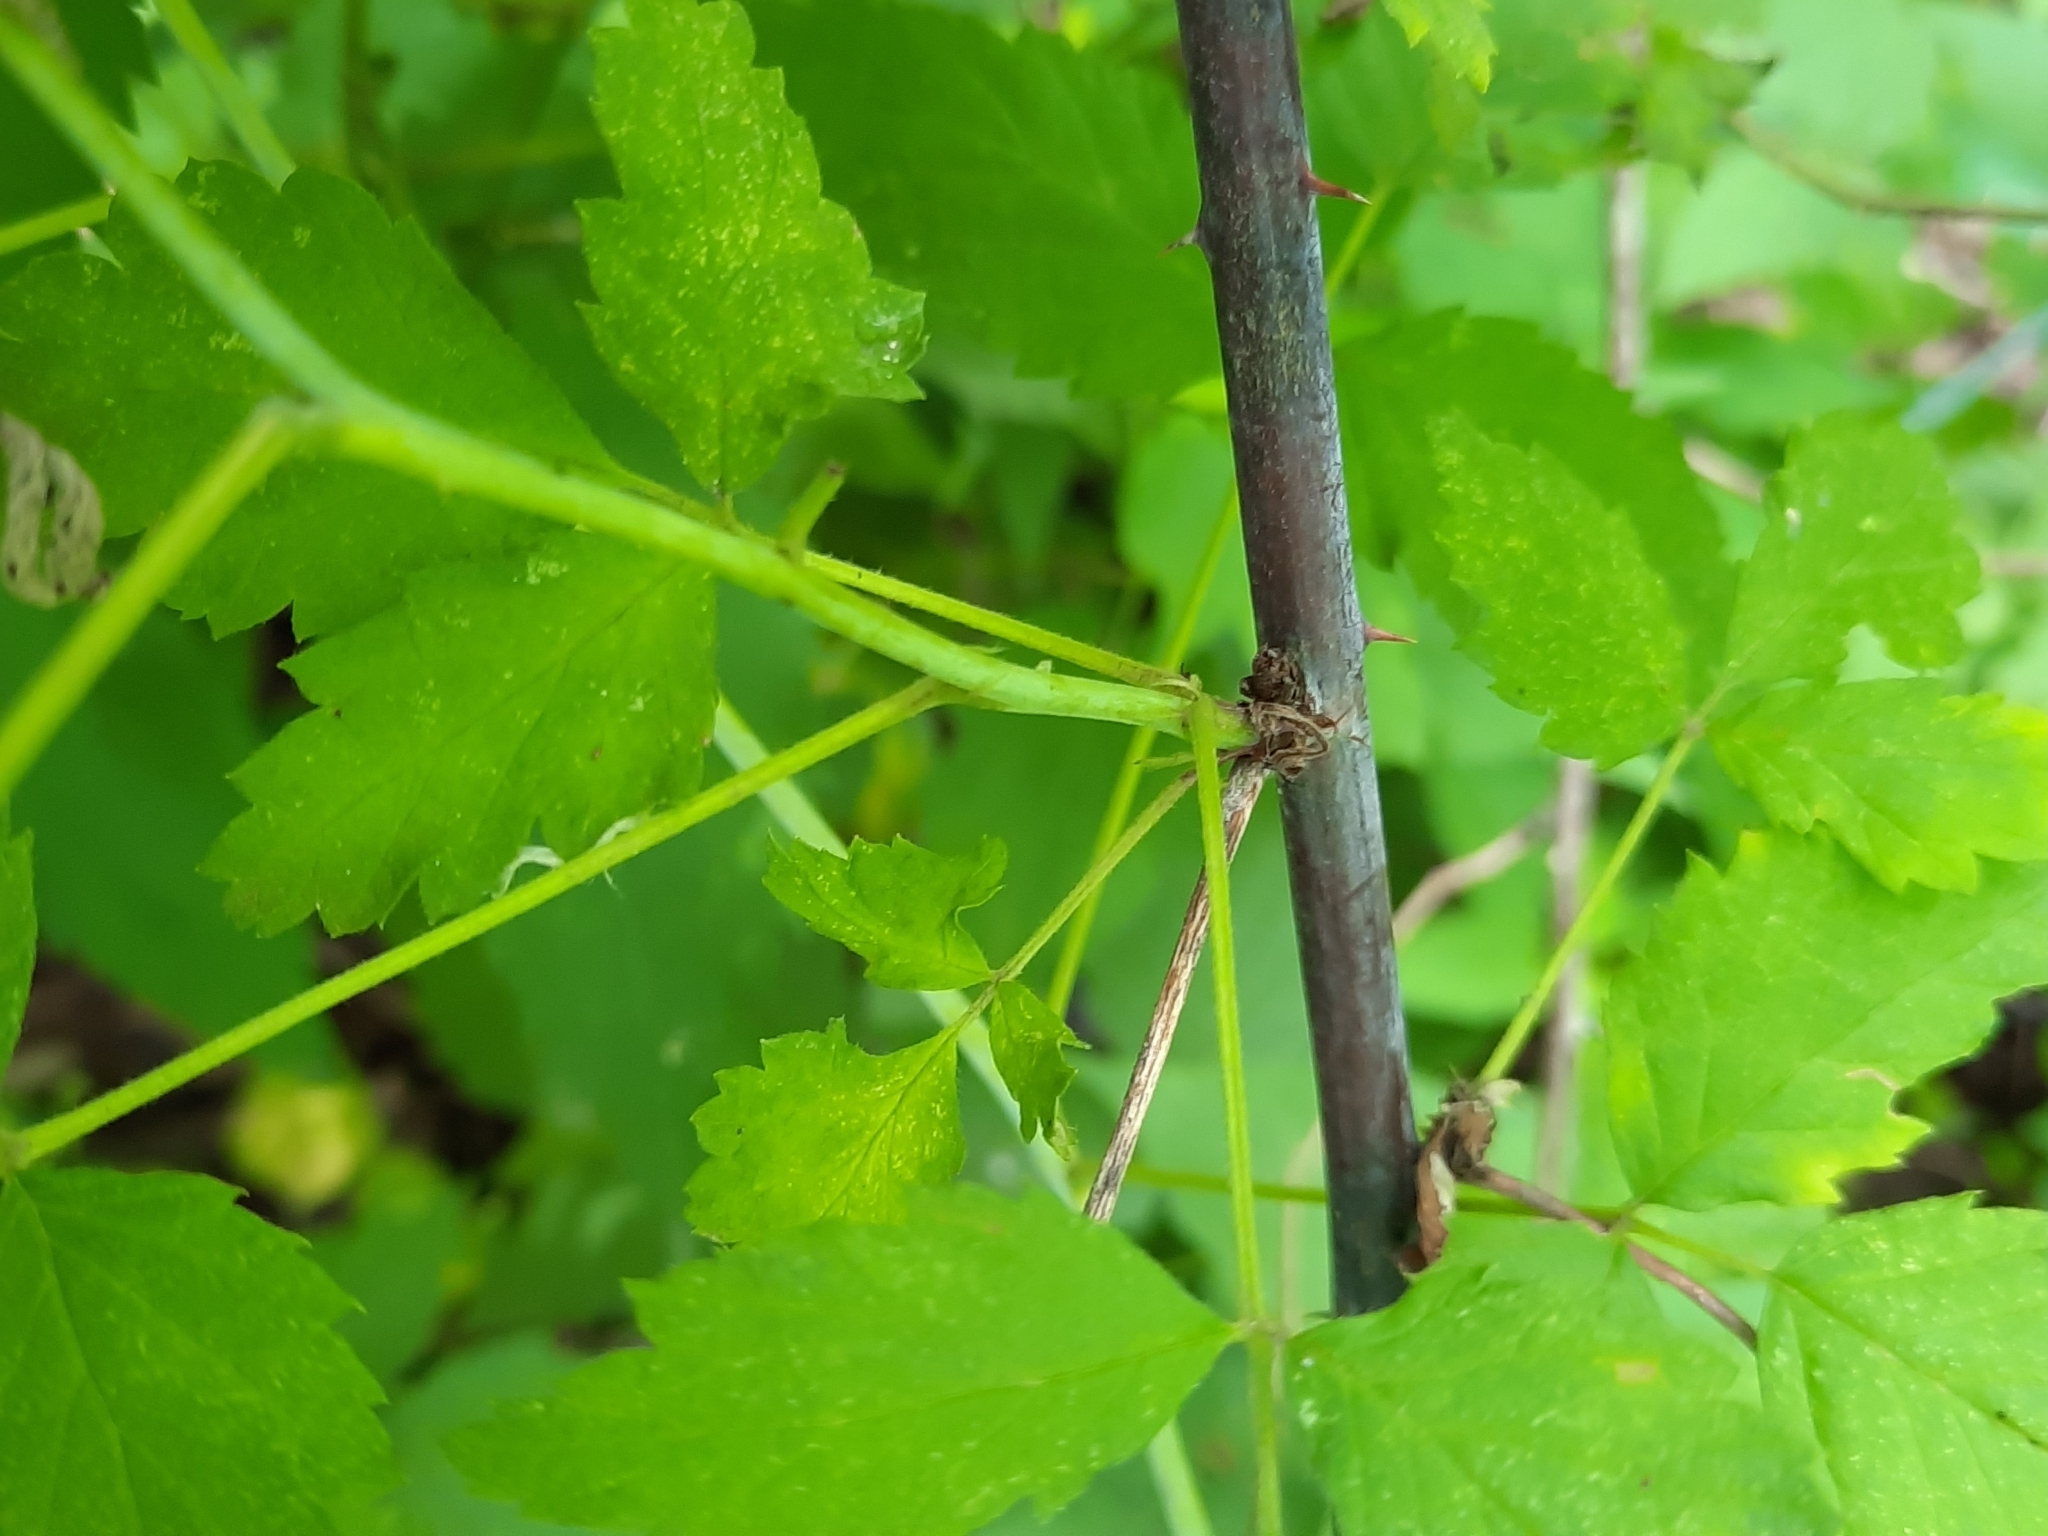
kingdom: Plantae
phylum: Tracheophyta
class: Magnoliopsida
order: Rosales
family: Rosaceae
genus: Rubus
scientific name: Rubus occidentalis
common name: Black raspberry
